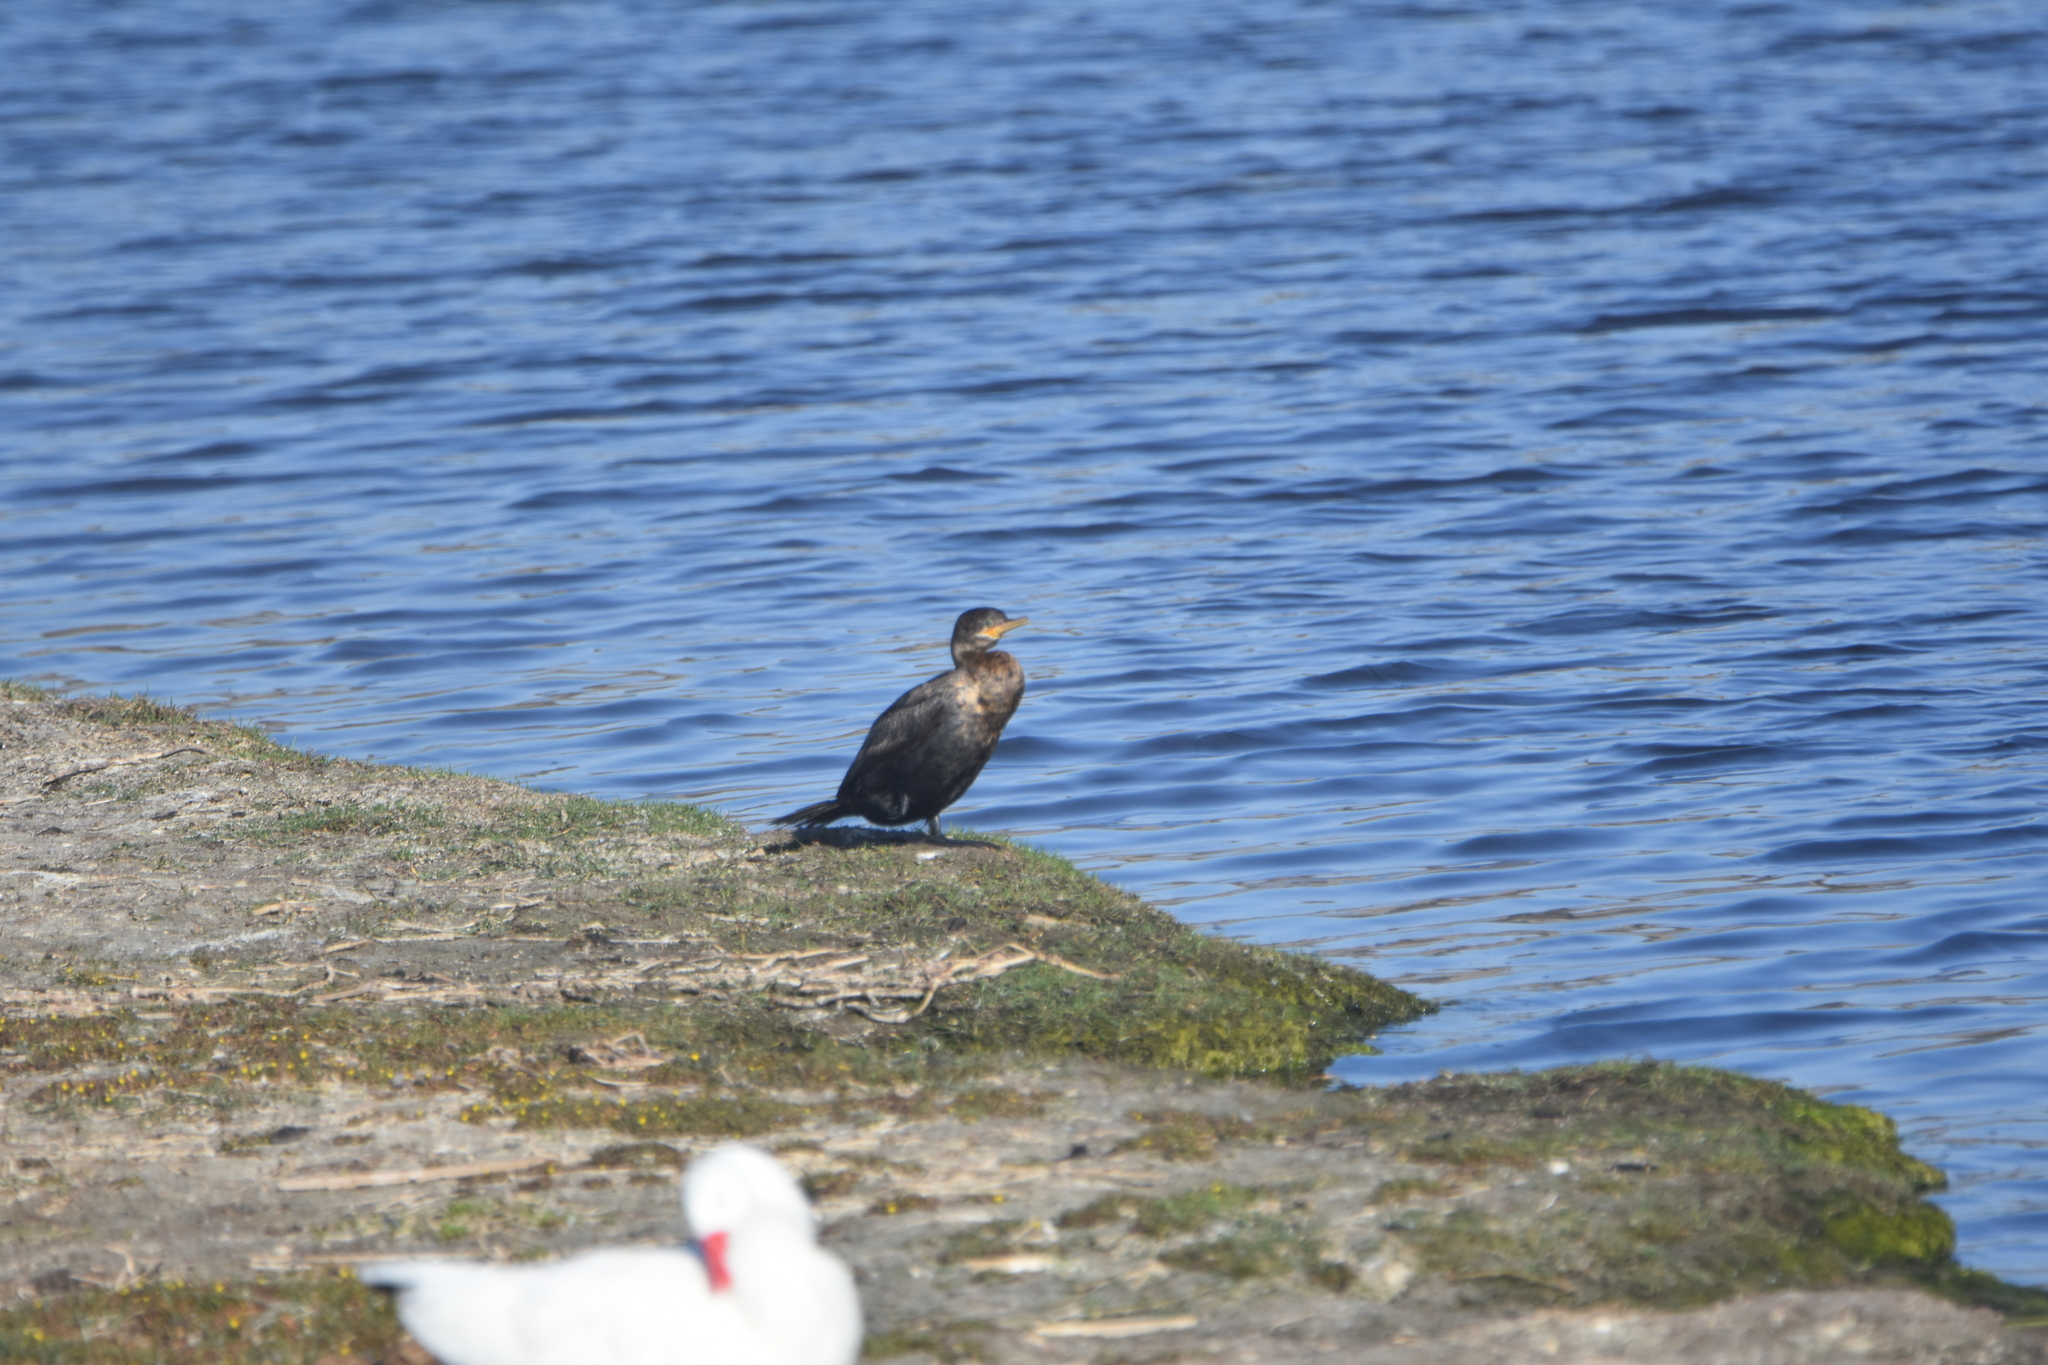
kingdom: Animalia
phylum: Chordata
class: Aves
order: Suliformes
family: Phalacrocoracidae
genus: Phalacrocorax
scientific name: Phalacrocorax brasilianus
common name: Neotropic cormorant
